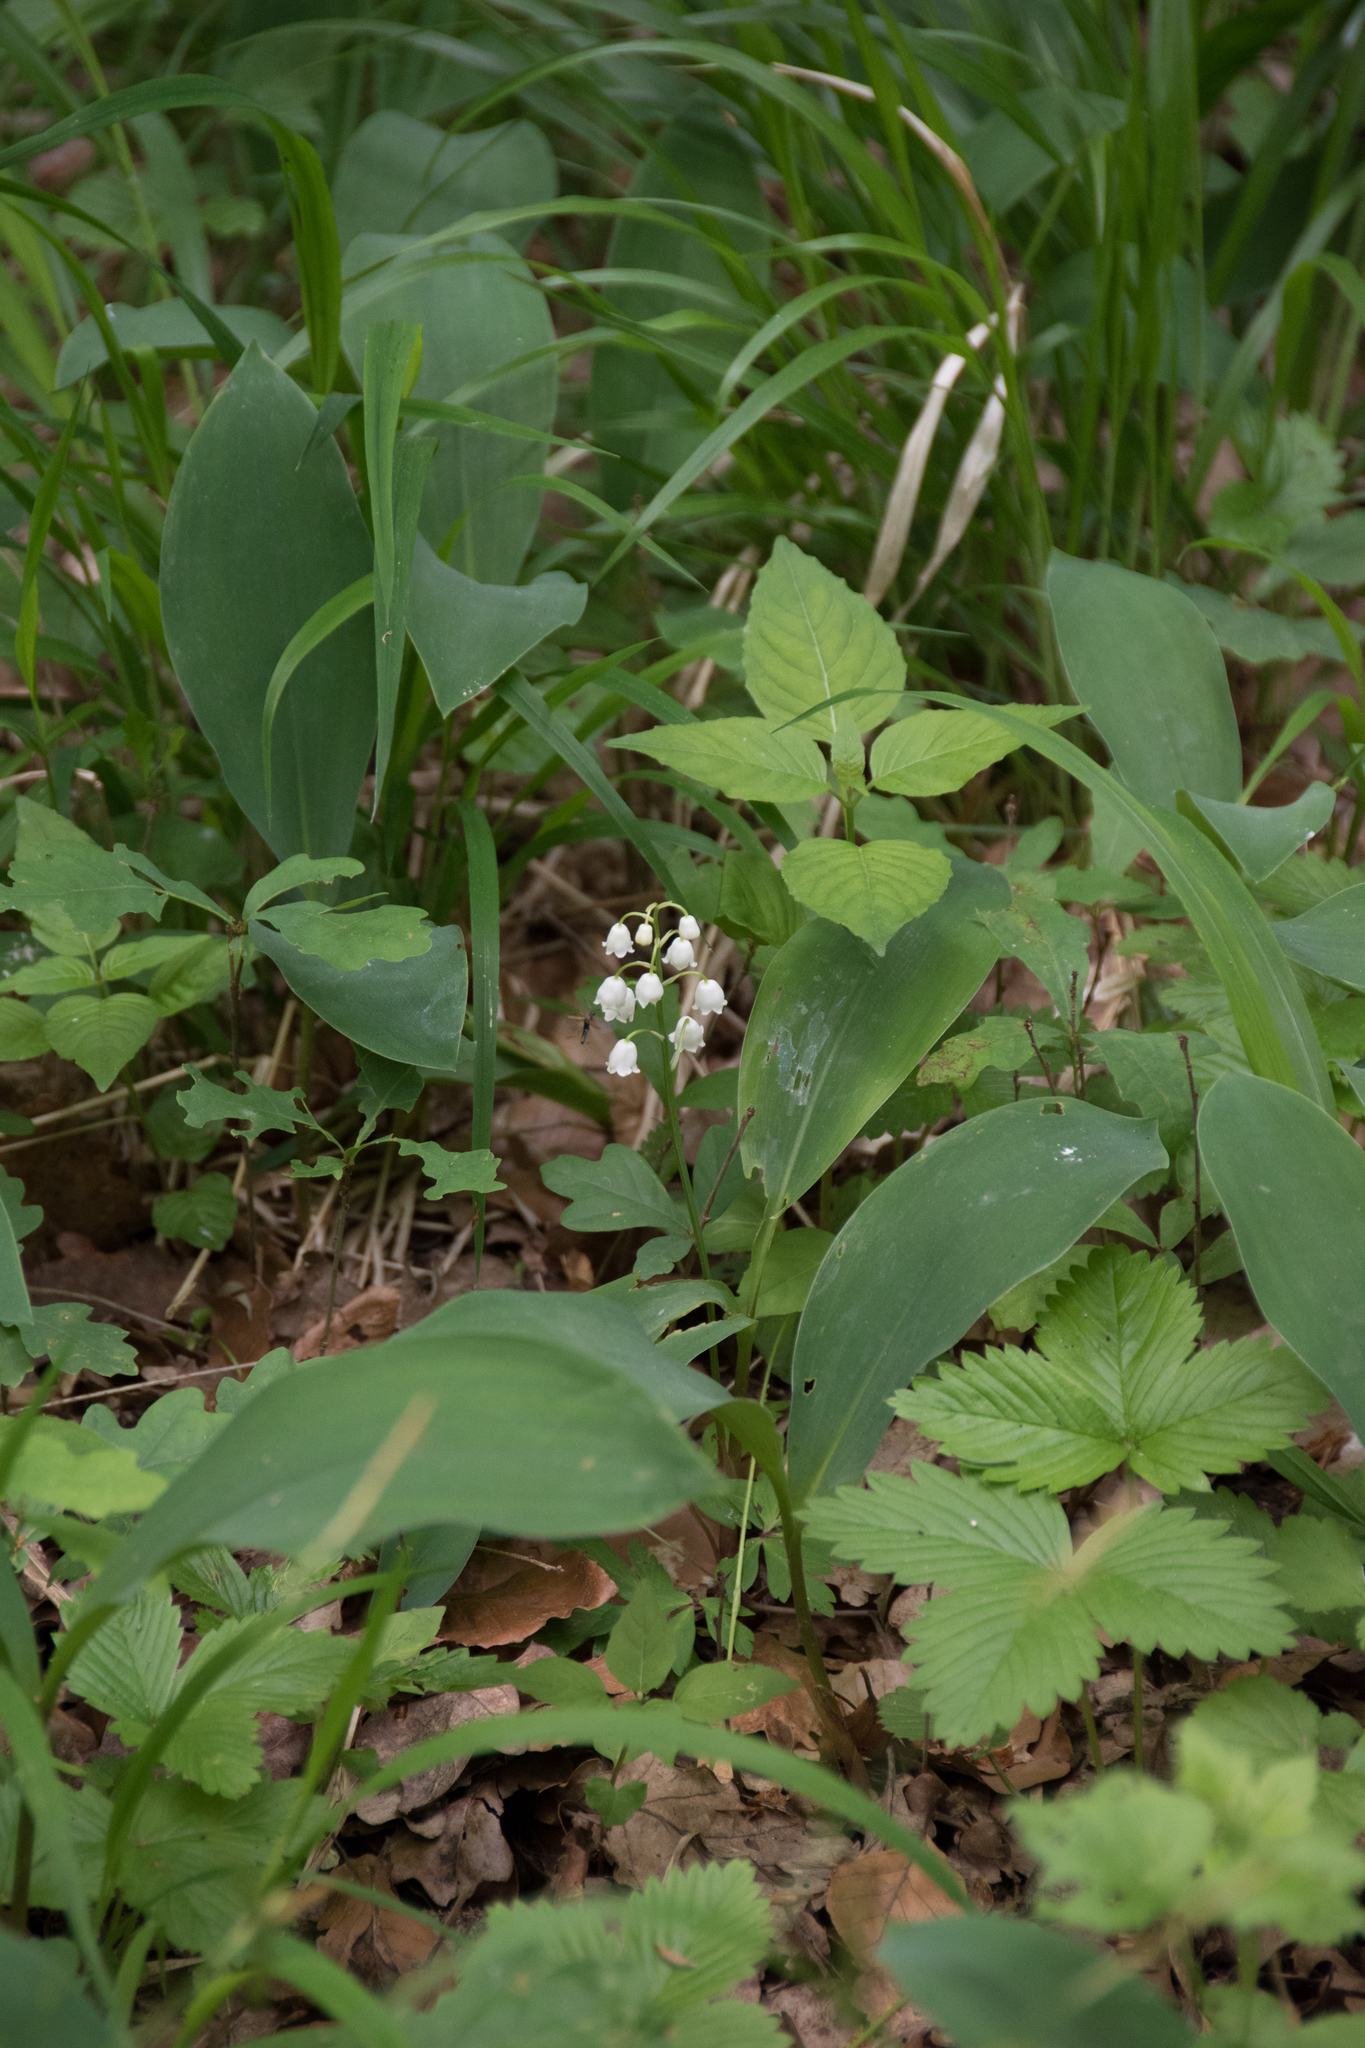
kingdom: Plantae
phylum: Tracheophyta
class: Liliopsida
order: Asparagales
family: Asparagaceae
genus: Convallaria
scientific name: Convallaria majalis
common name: Lily-of-the-valley
